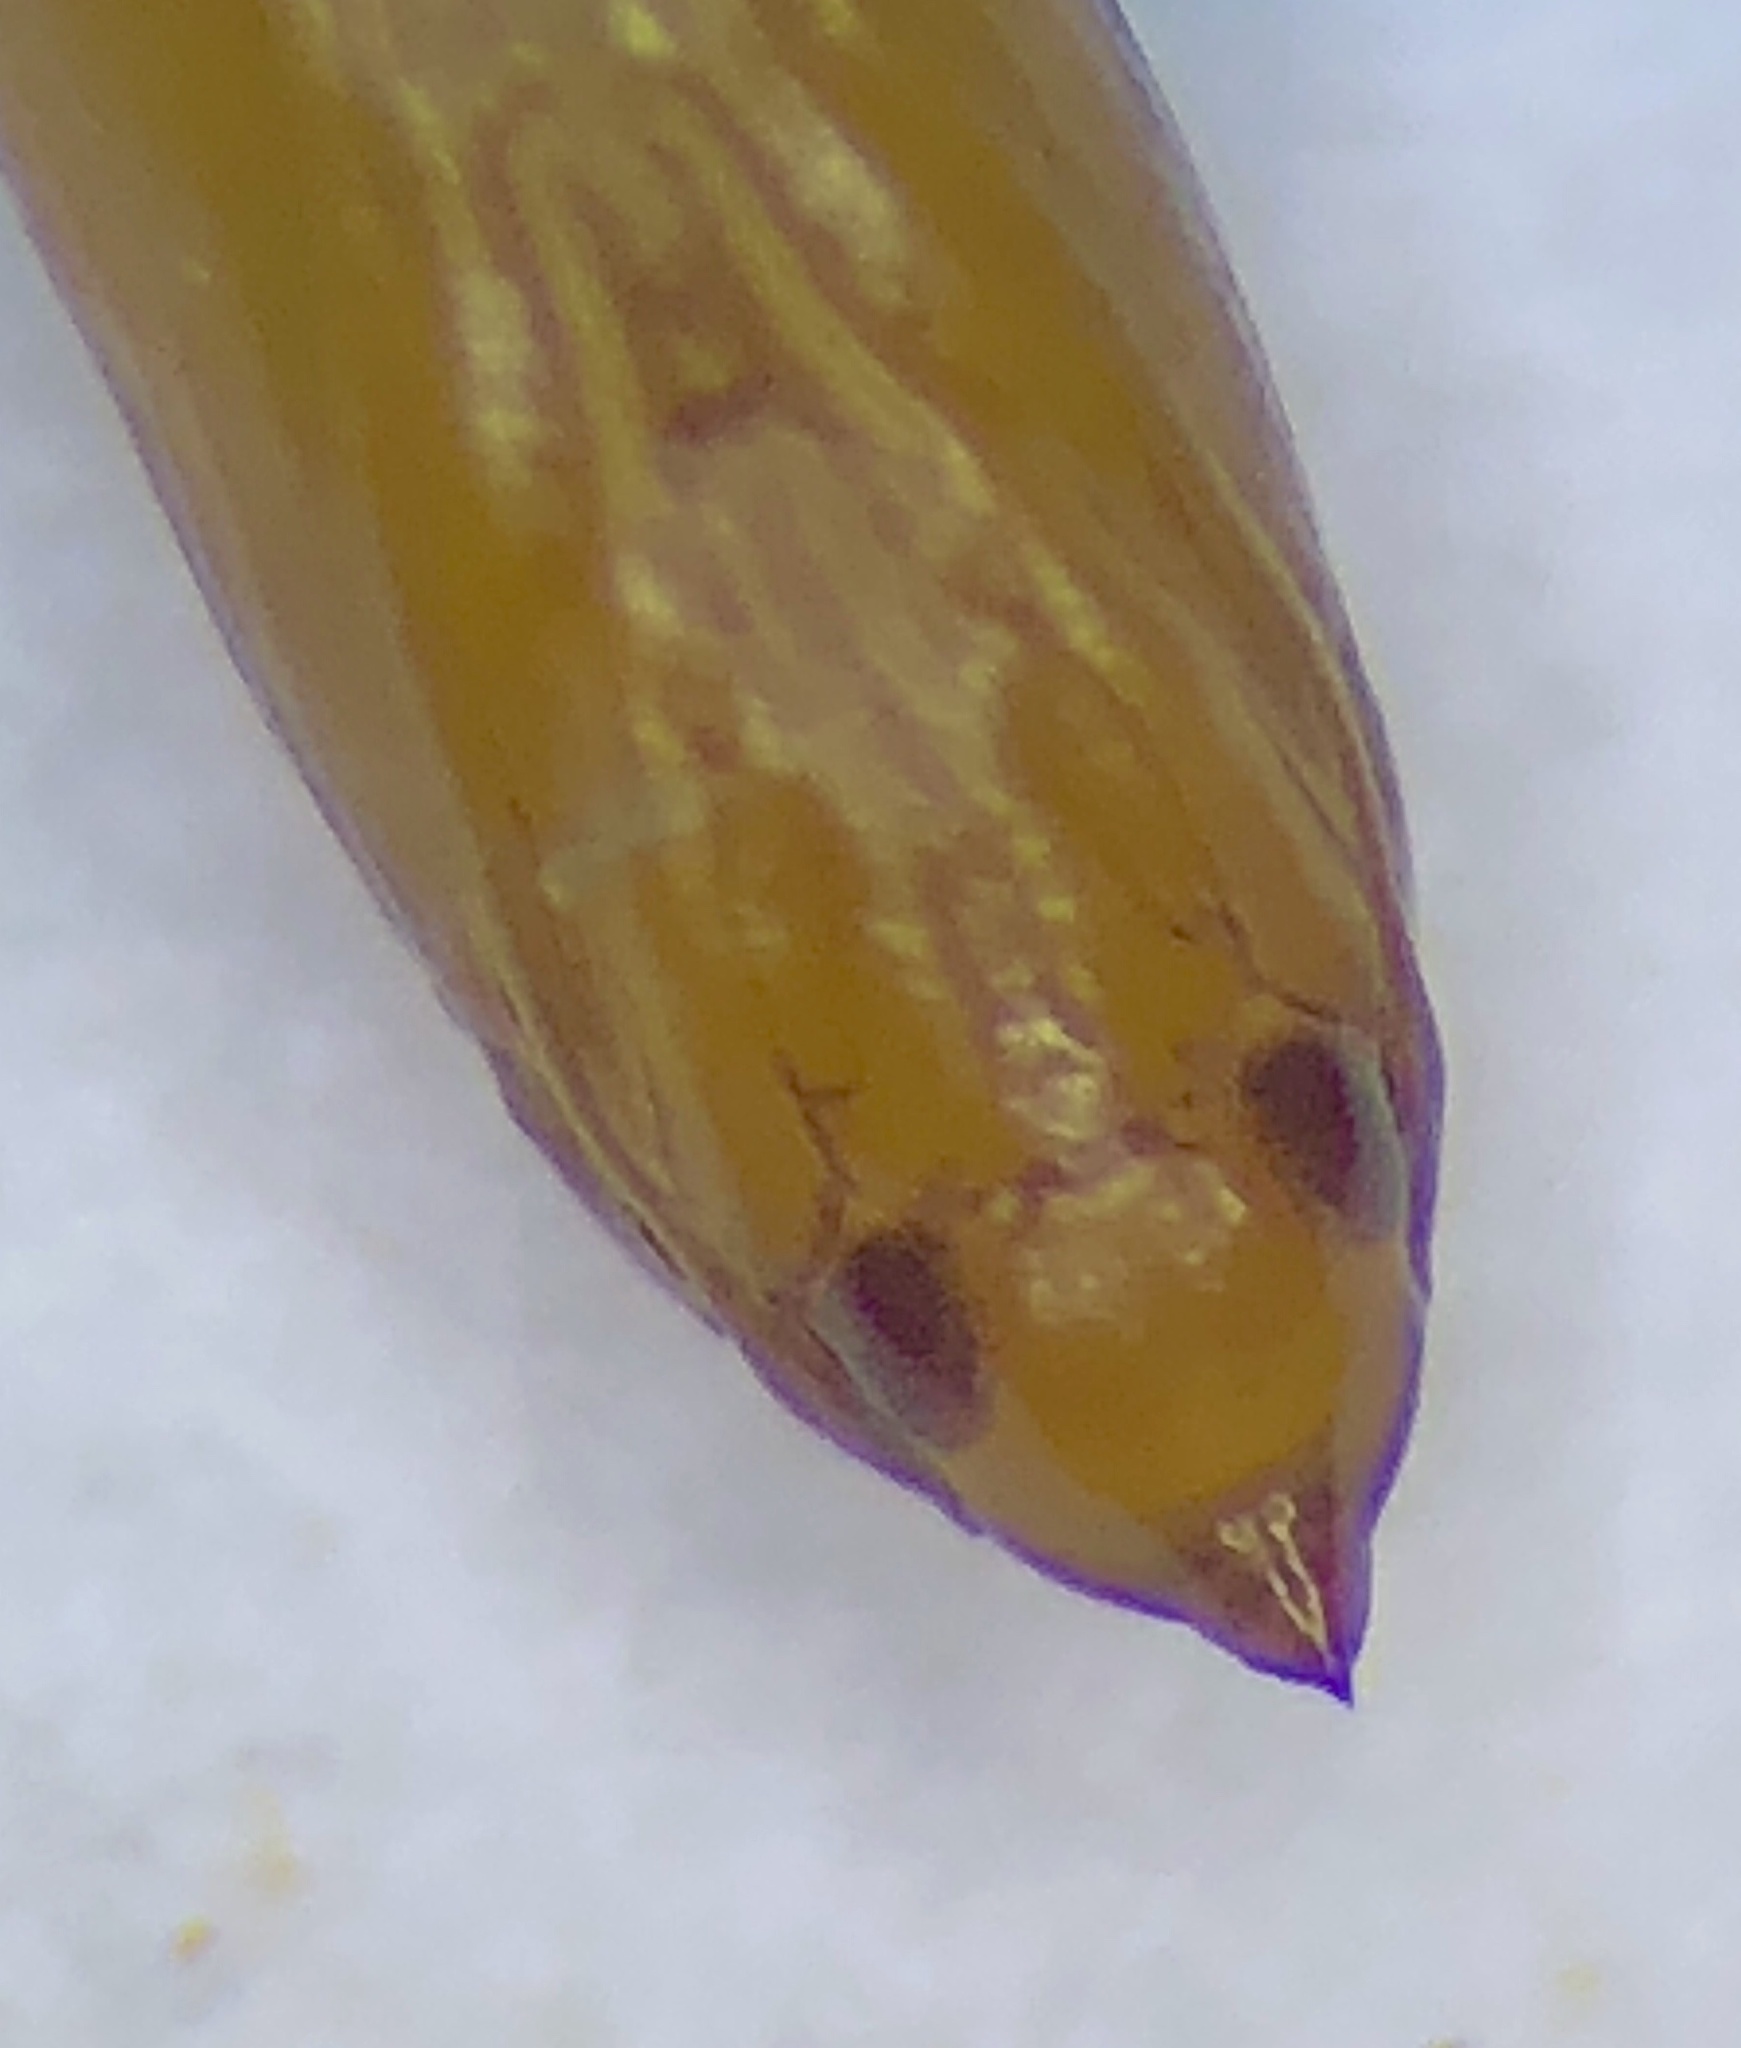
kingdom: Animalia
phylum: Arthropoda
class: Insecta
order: Lepidoptera
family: Gracillariidae
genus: Cameraria
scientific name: Cameraria hamadryadella
